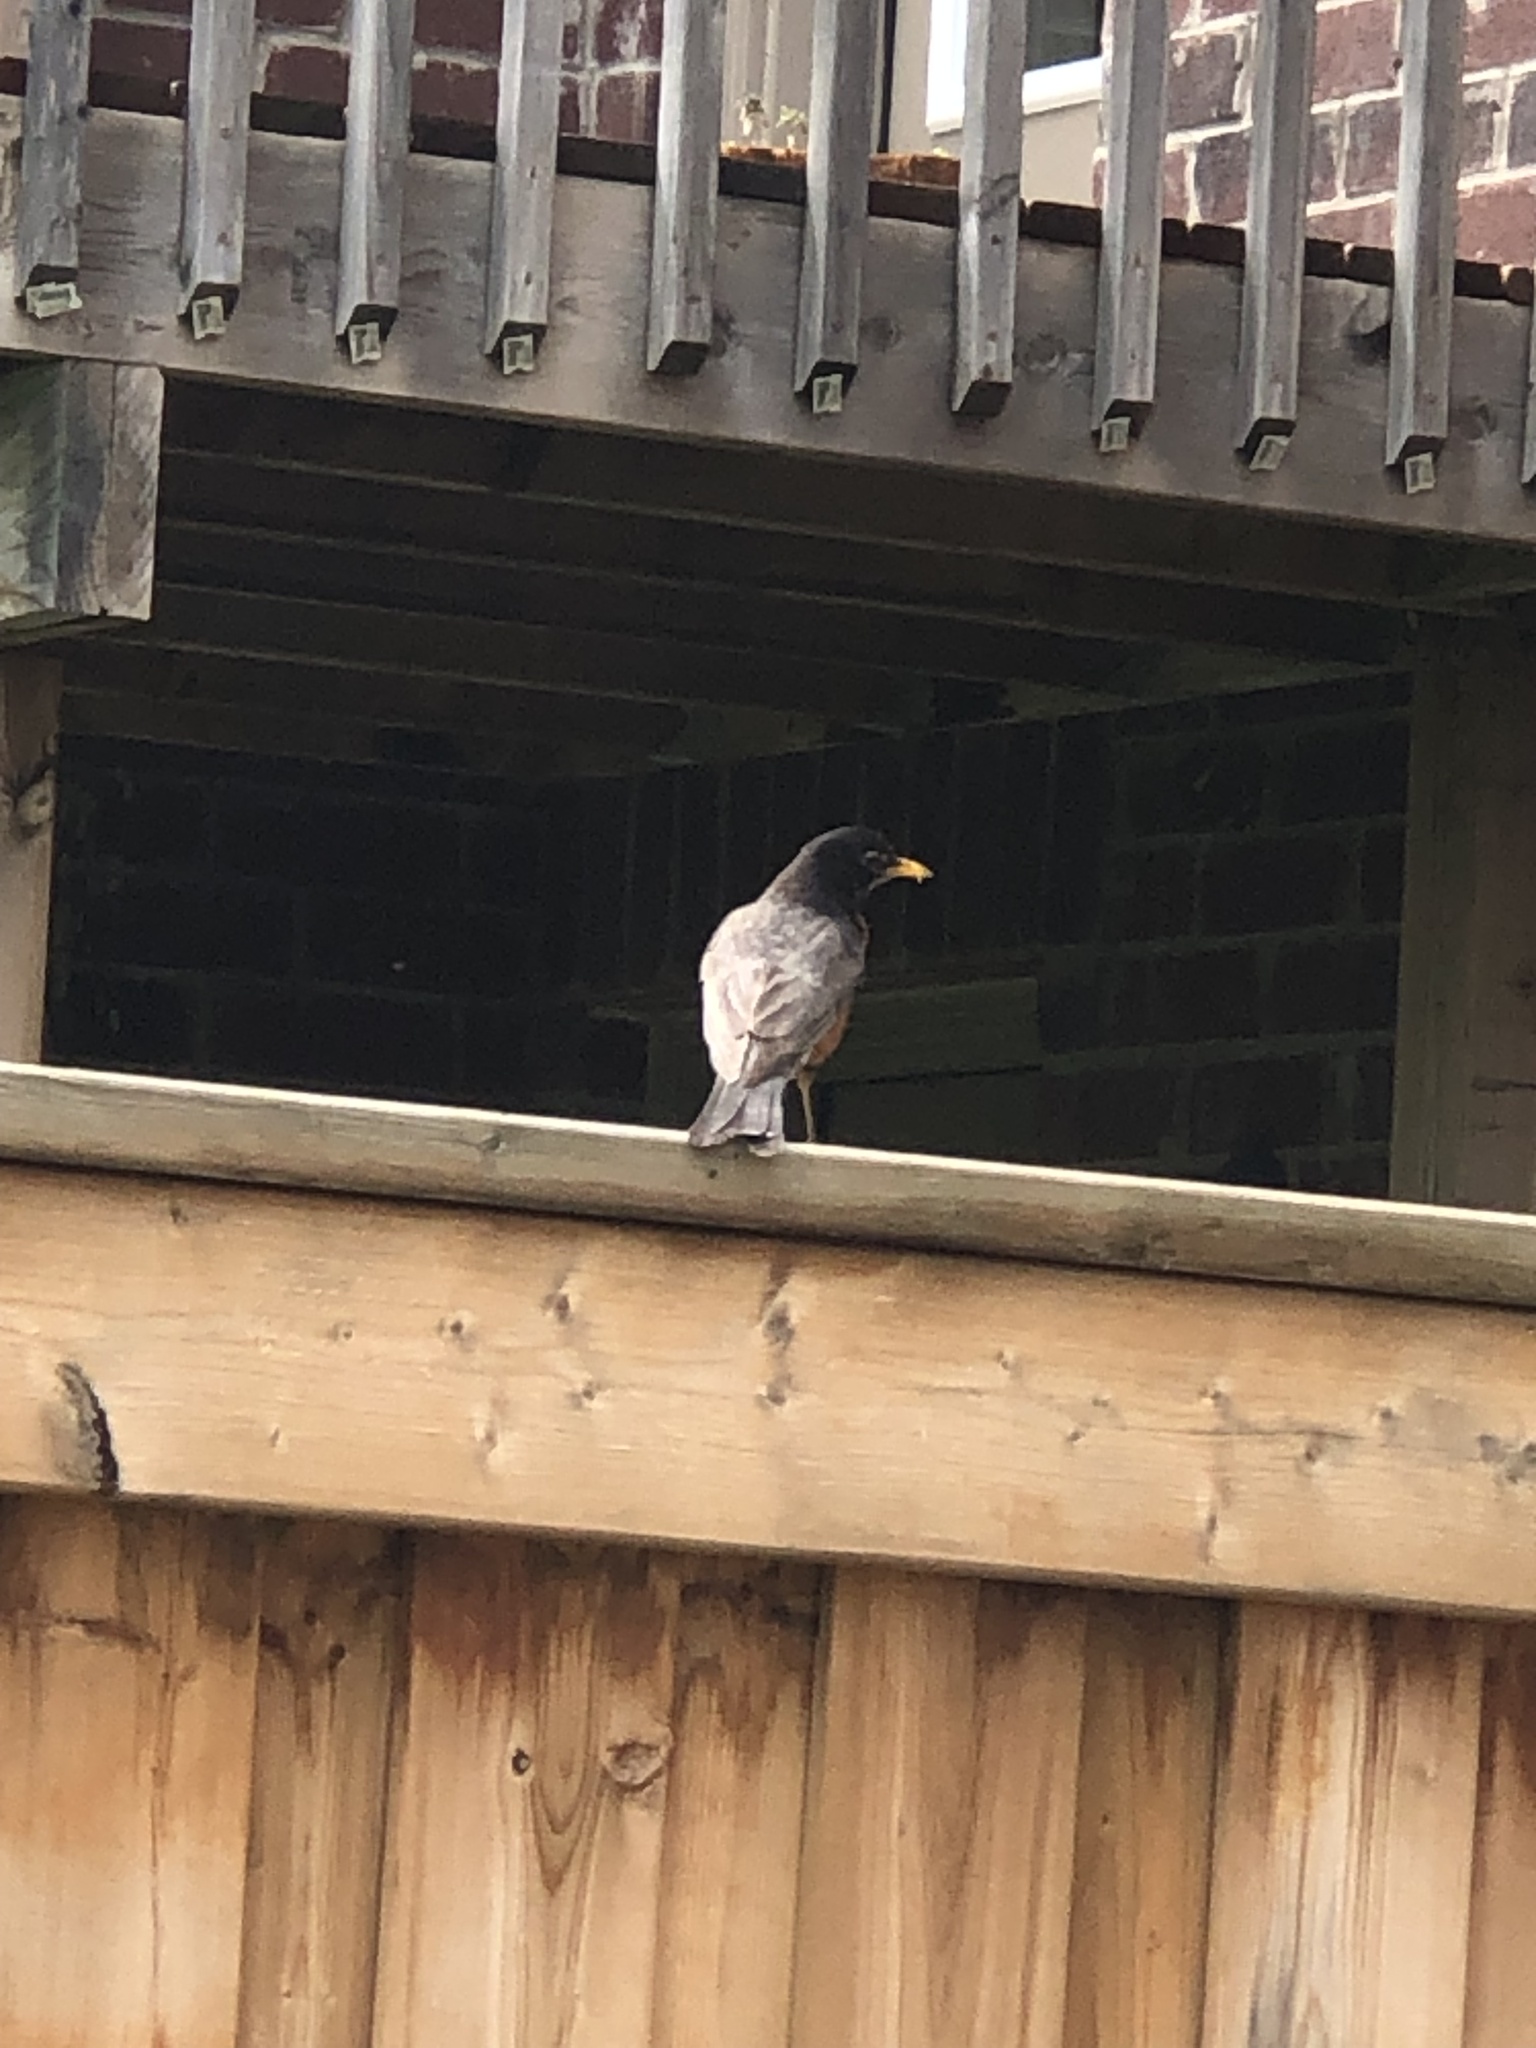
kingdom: Animalia
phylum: Chordata
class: Aves
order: Passeriformes
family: Turdidae
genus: Turdus
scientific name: Turdus migratorius
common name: American robin
